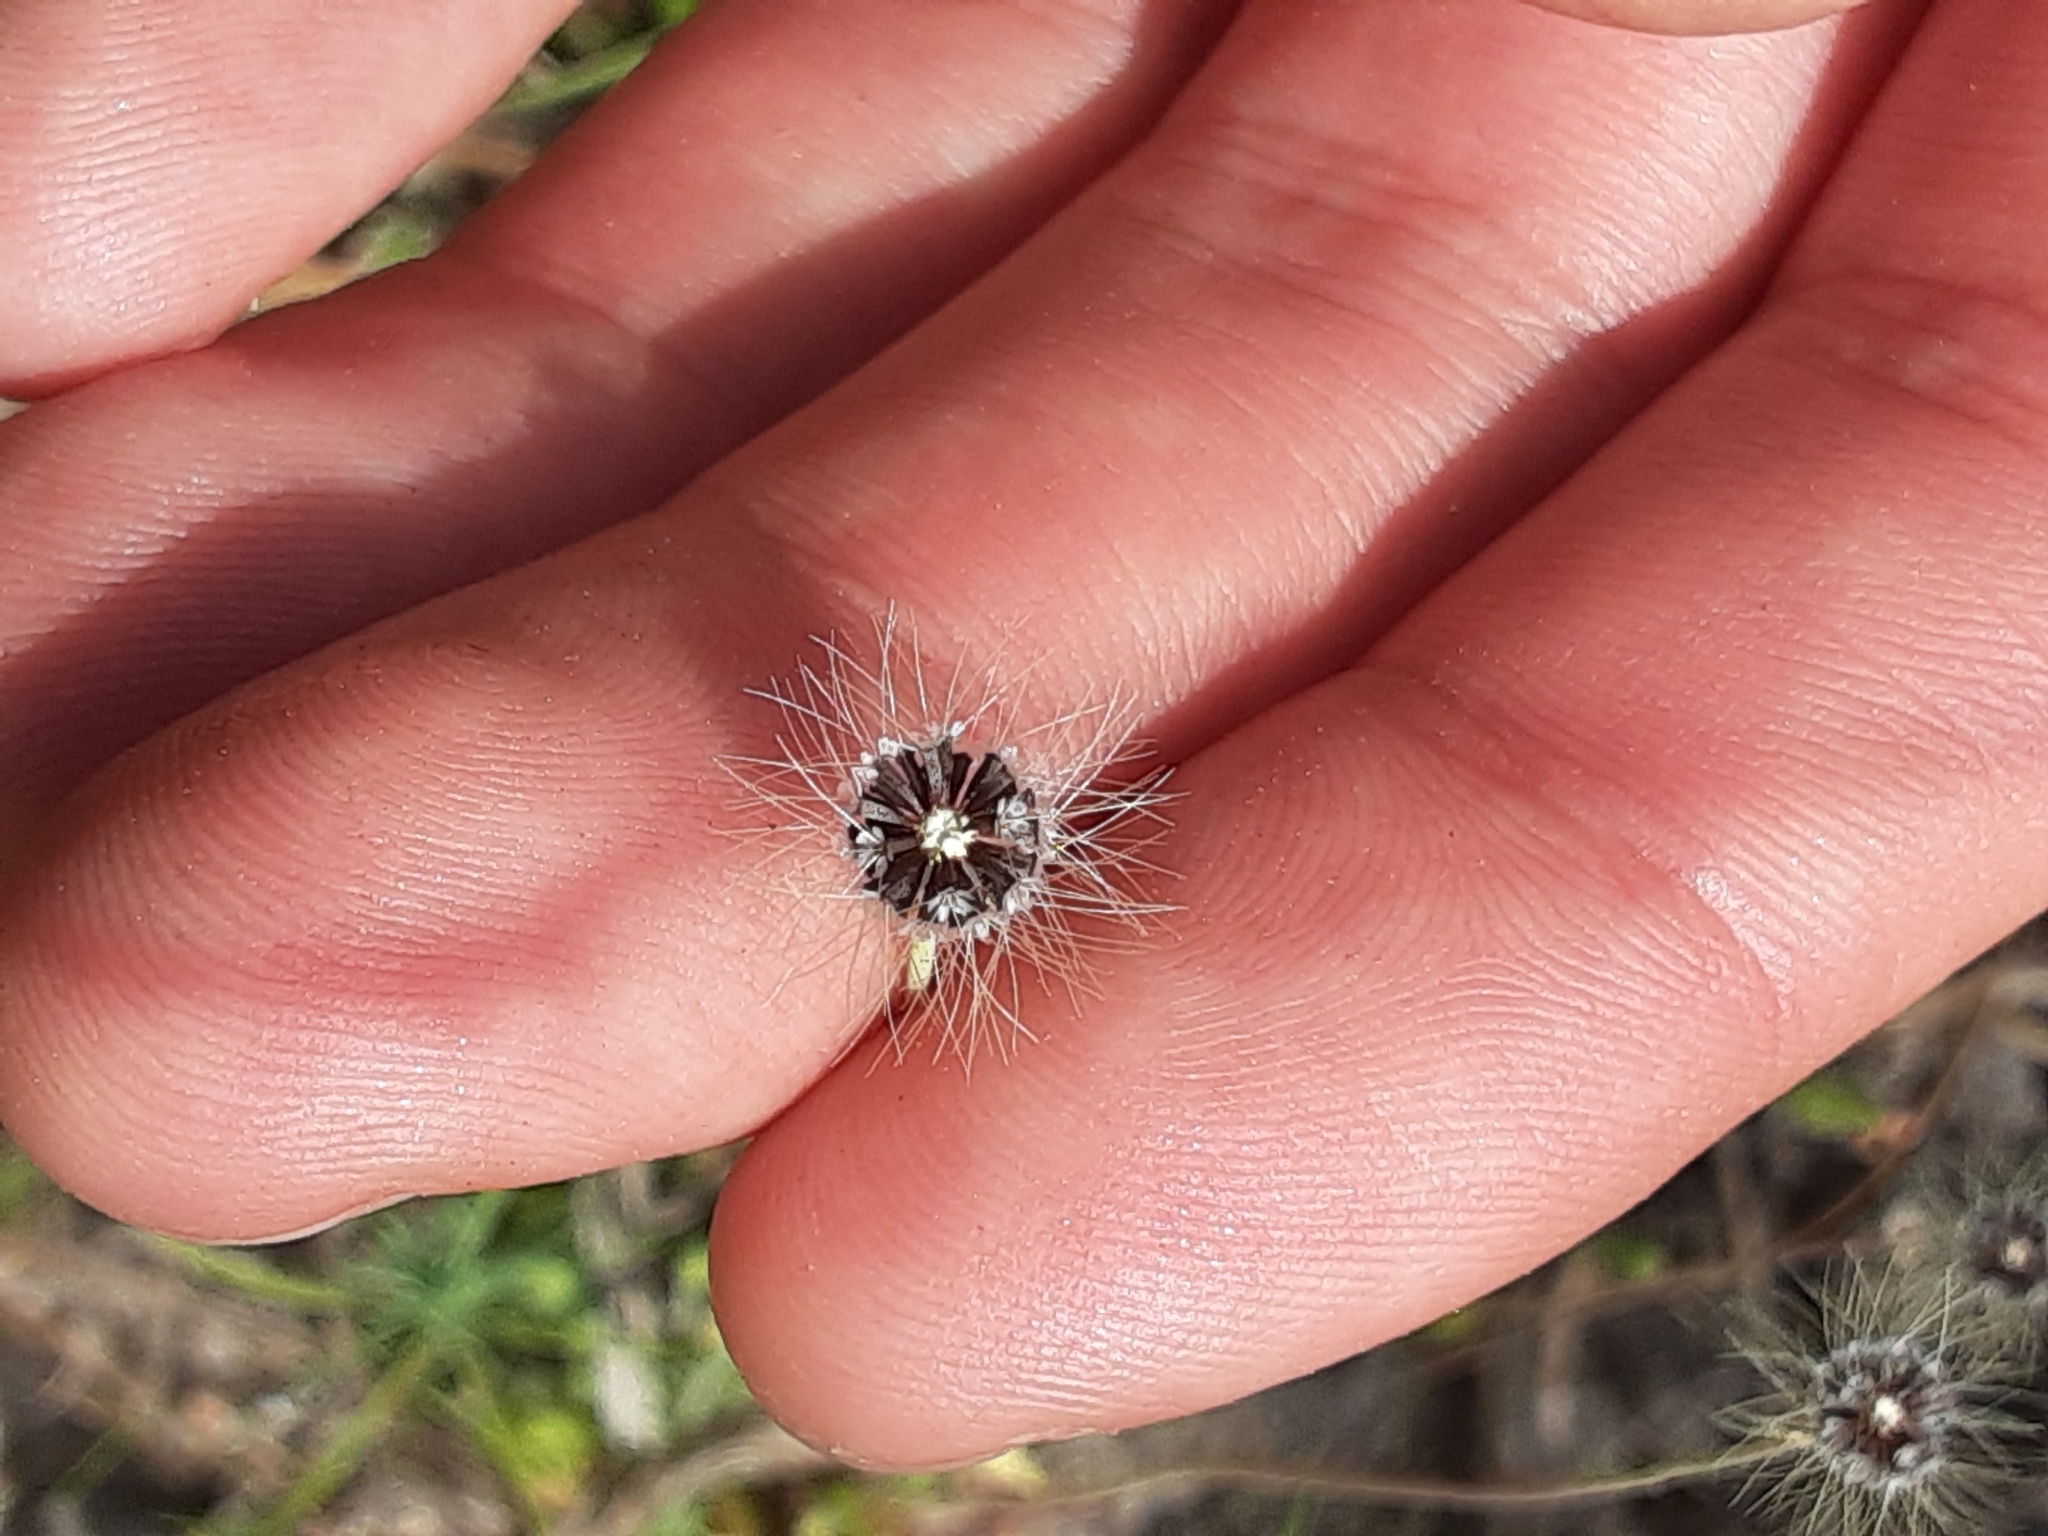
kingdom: Plantae
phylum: Tracheophyta
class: Magnoliopsida
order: Asterales
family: Asteraceae
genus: Krigia
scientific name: Krigia virginica
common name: Virginia dwarf-dandelion
